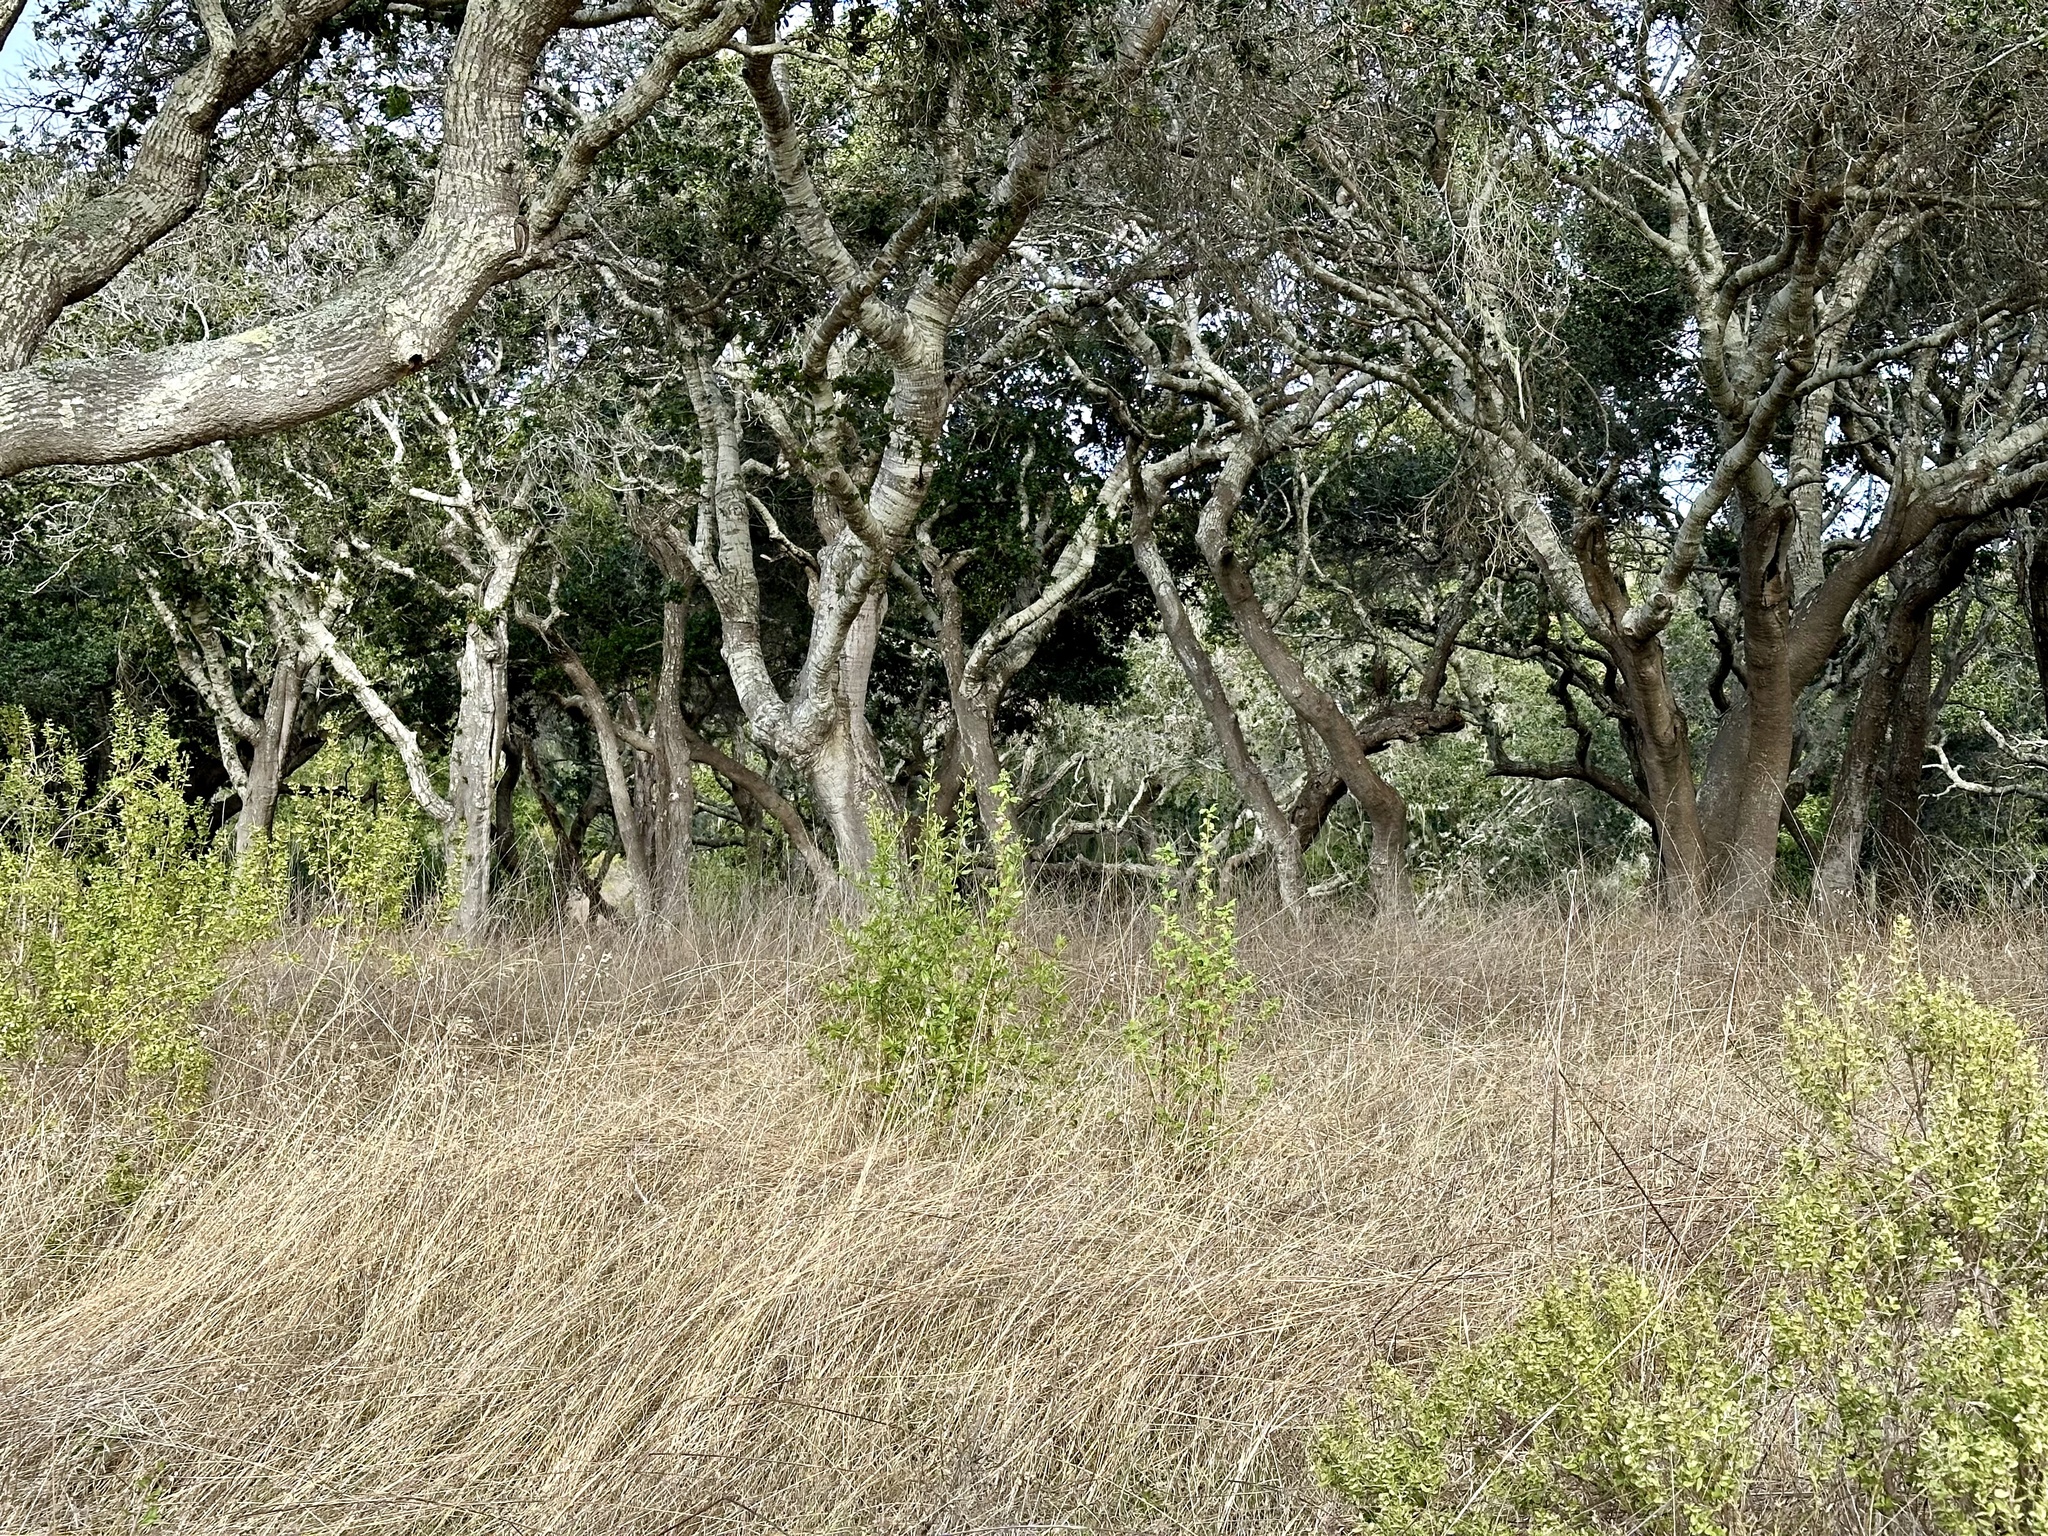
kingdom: Plantae
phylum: Tracheophyta
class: Magnoliopsida
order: Saxifragales
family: Grossulariaceae
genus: Ribes
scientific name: Ribes malvaceum
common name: Chaparral currant
